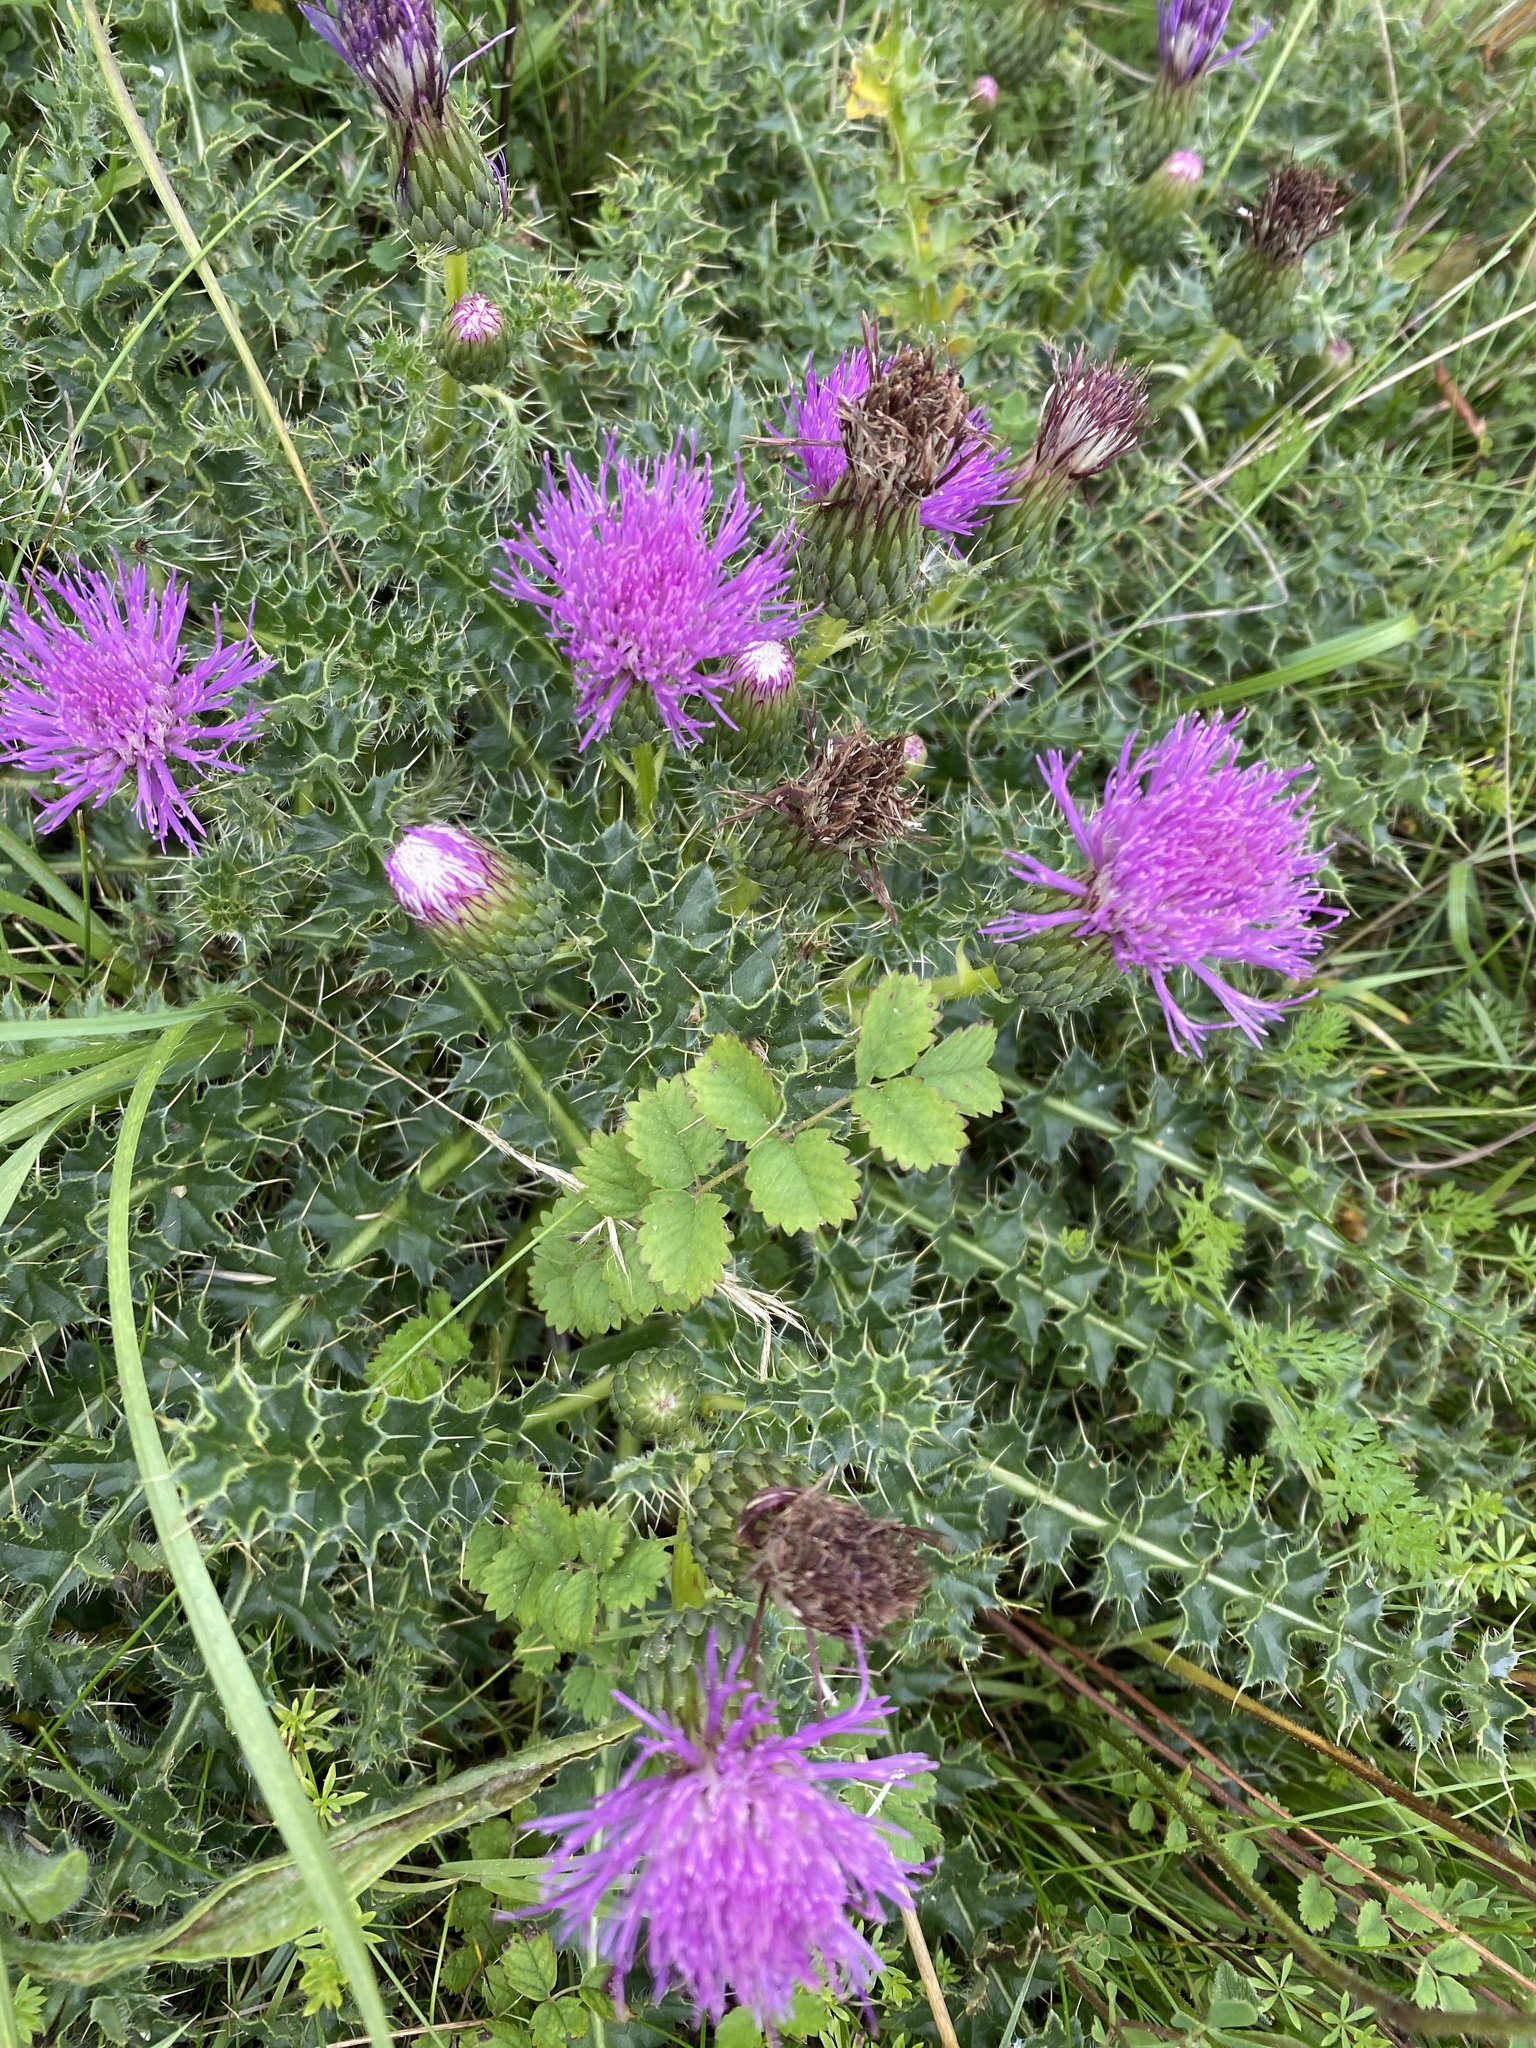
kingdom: Plantae
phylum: Tracheophyta
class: Magnoliopsida
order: Asterales
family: Asteraceae
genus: Cirsium
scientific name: Cirsium acaulon
